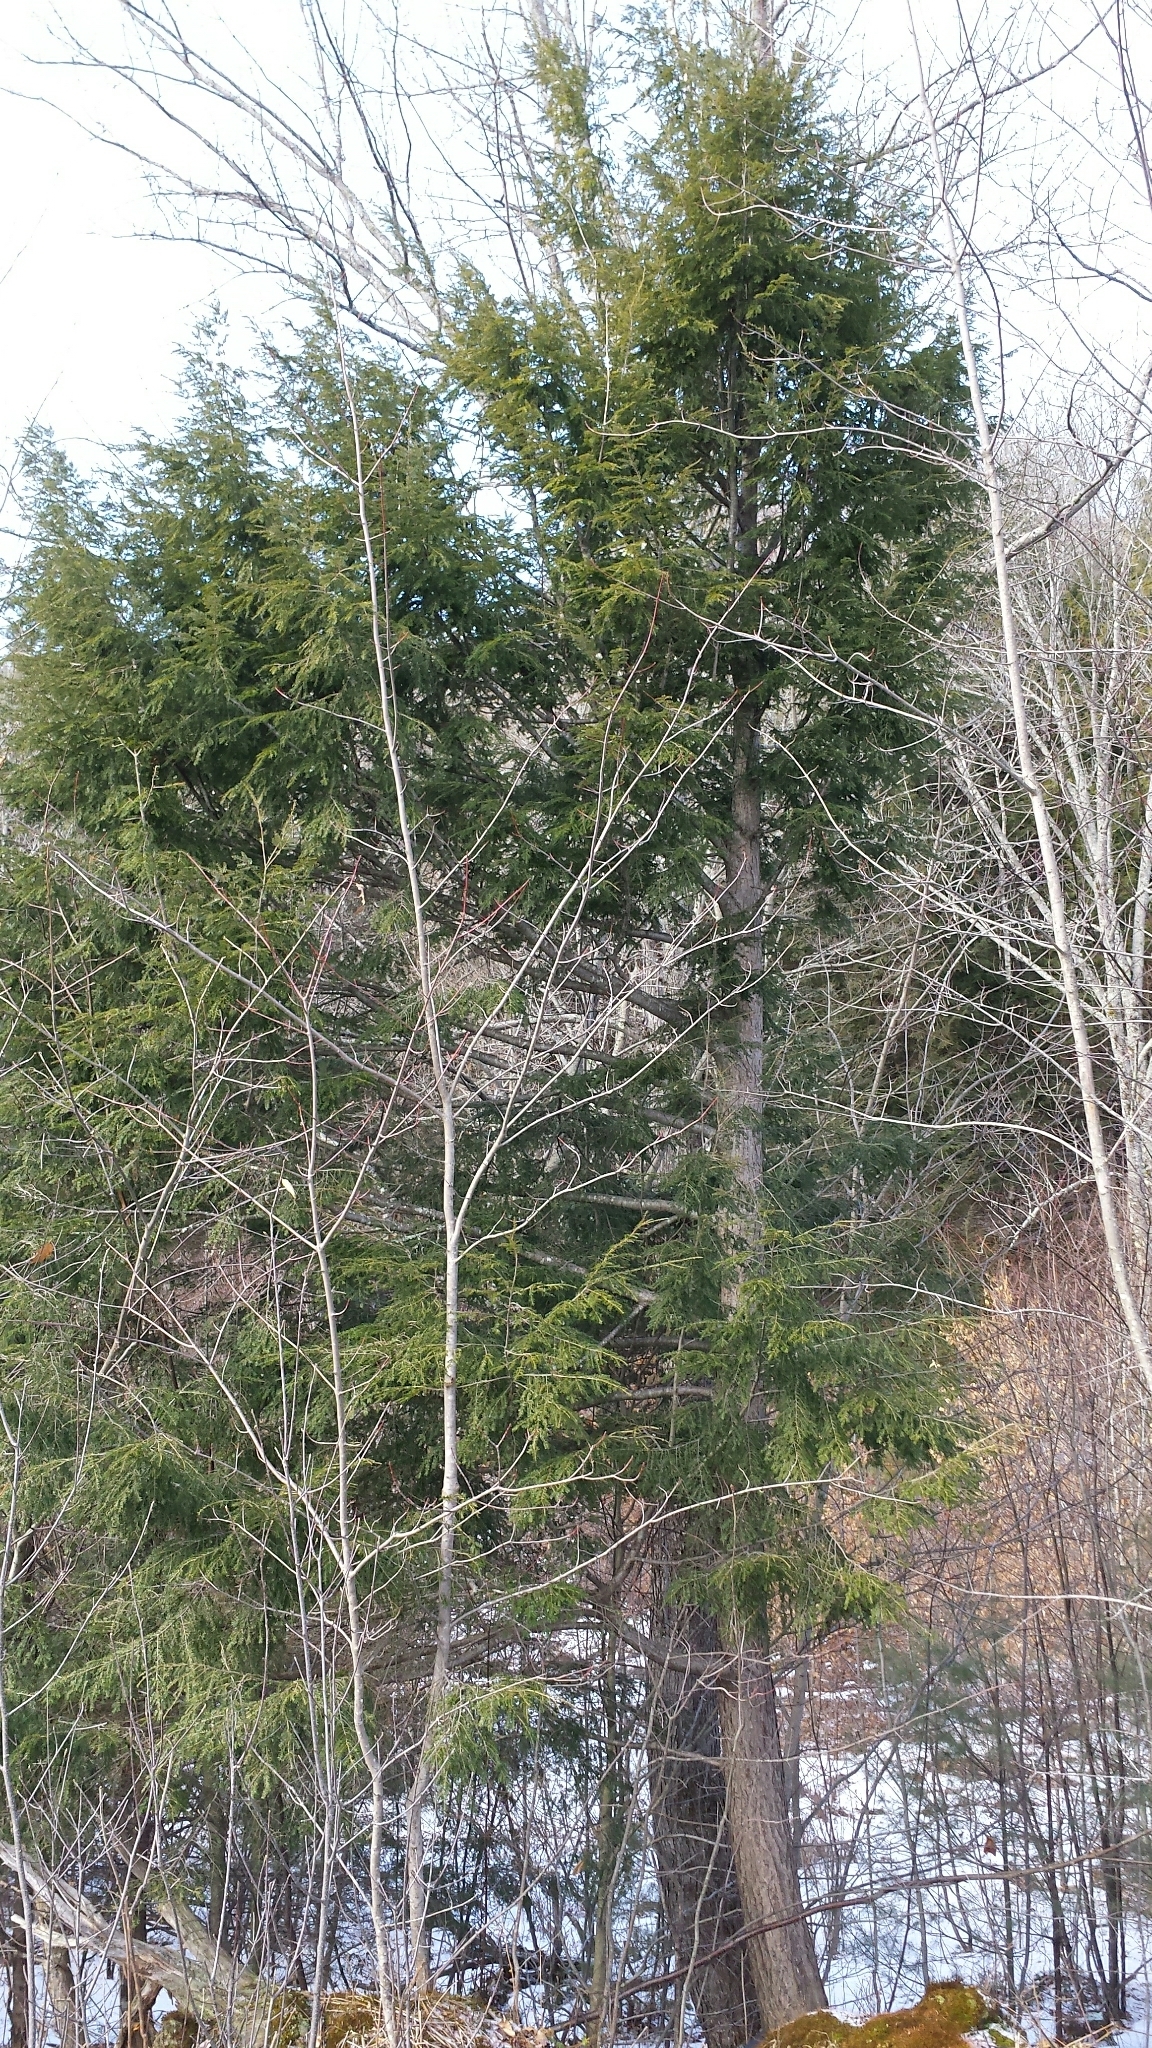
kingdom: Plantae
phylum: Tracheophyta
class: Pinopsida
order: Pinales
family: Pinaceae
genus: Tsuga
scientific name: Tsuga canadensis
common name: Eastern hemlock
